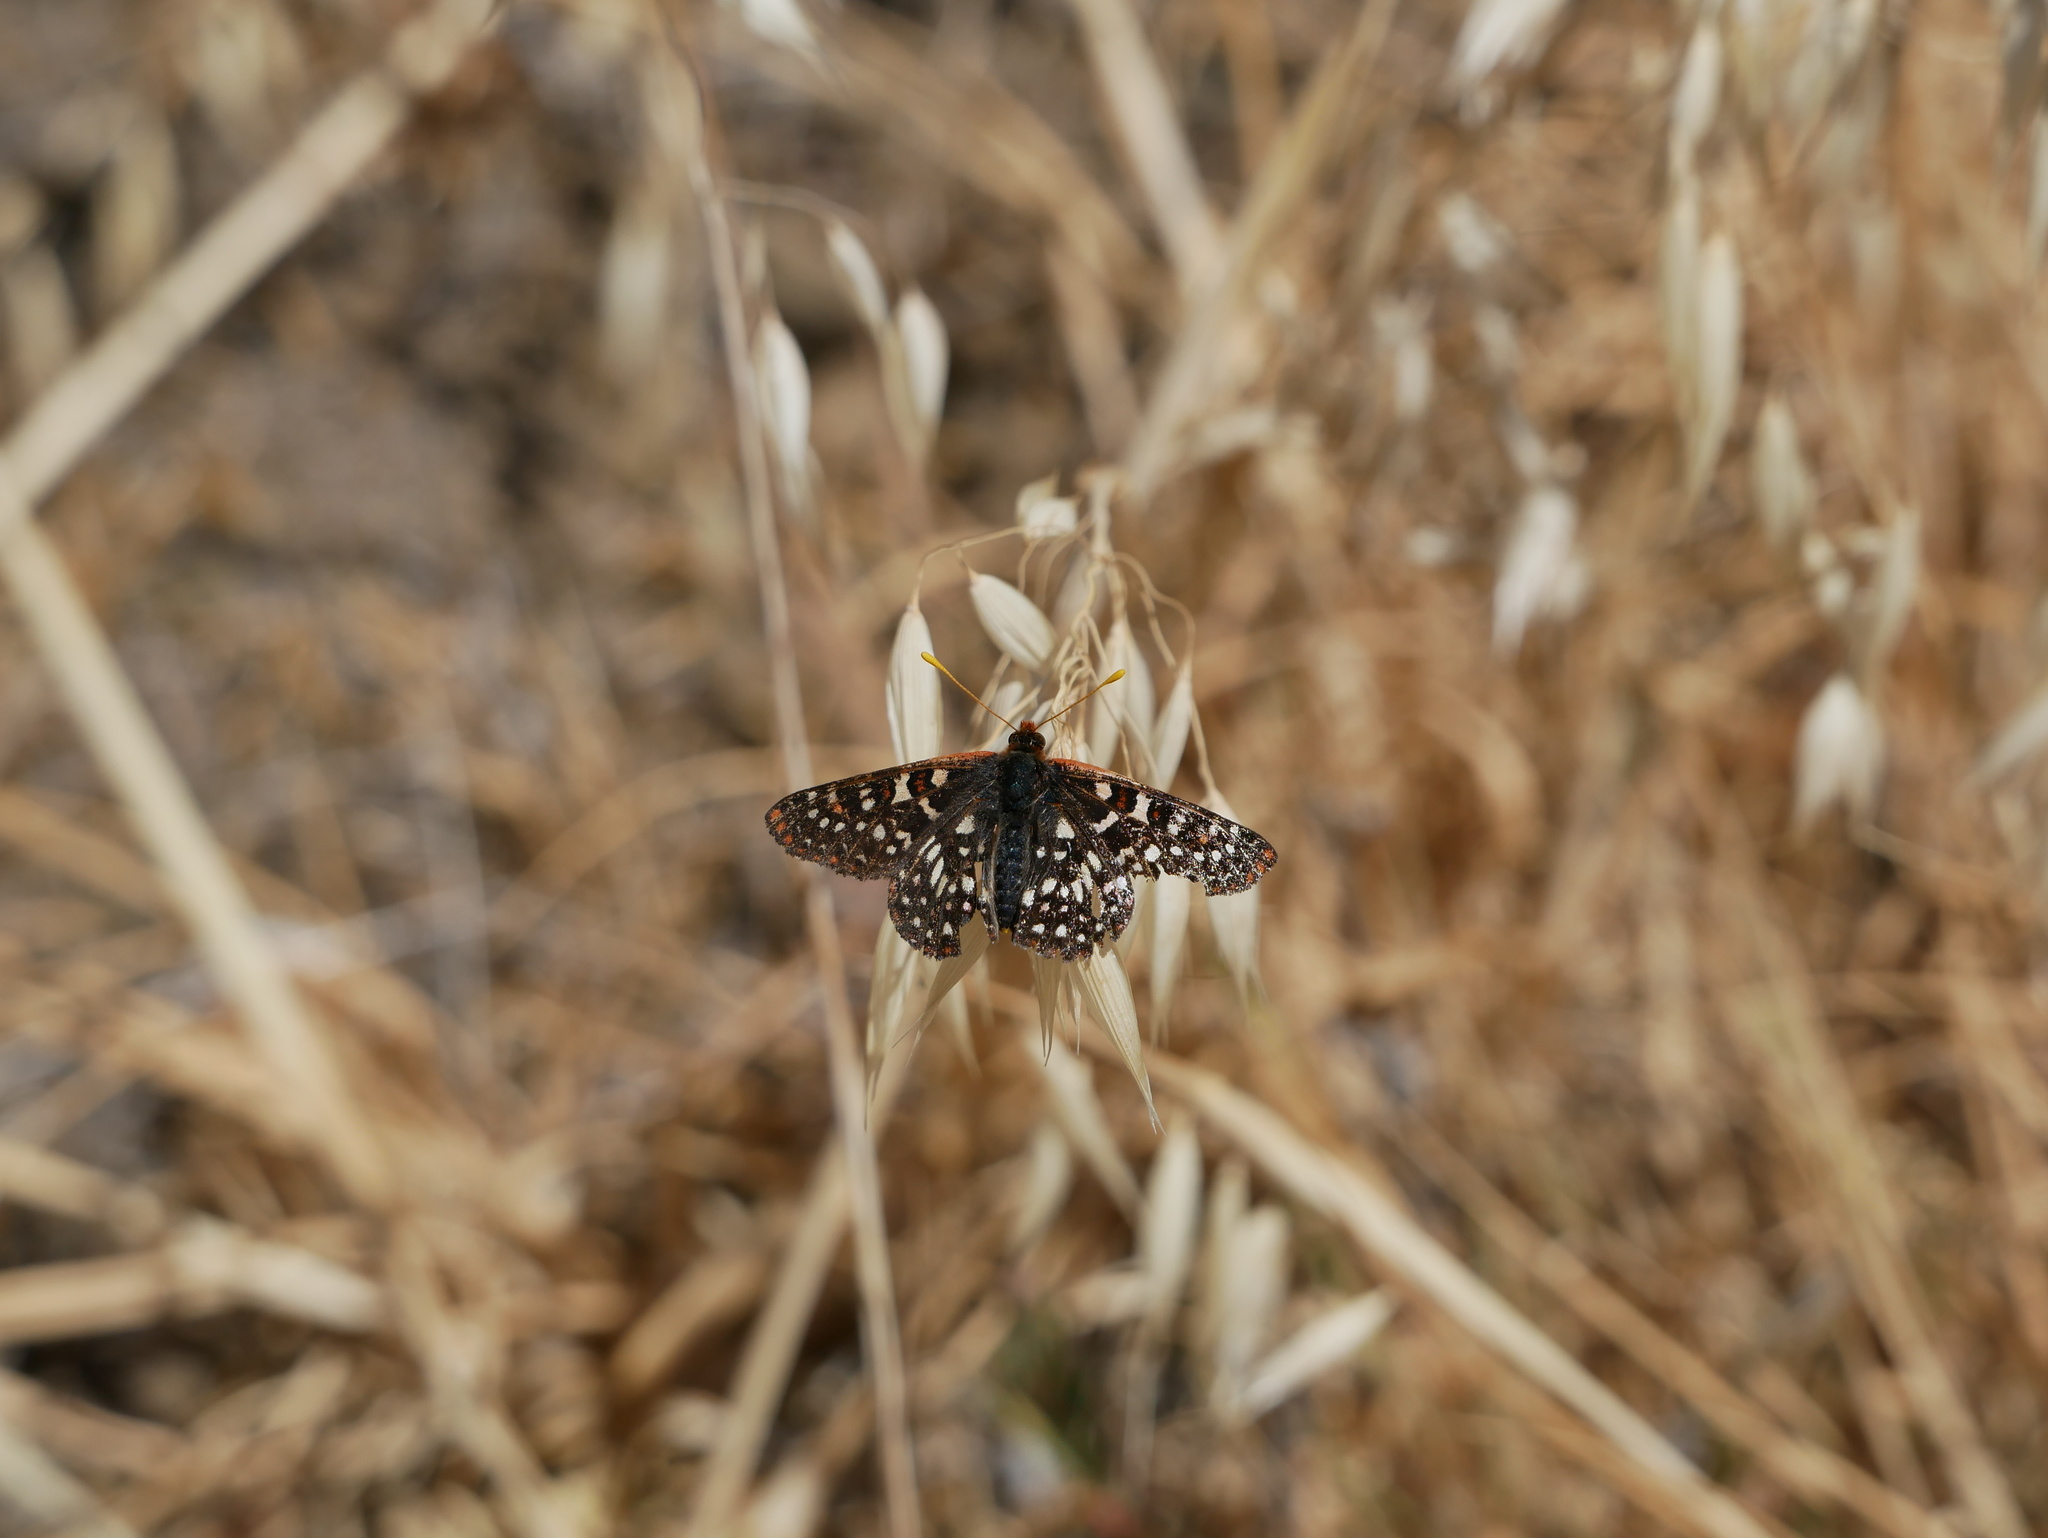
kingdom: Animalia
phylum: Arthropoda
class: Insecta
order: Lepidoptera
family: Nymphalidae
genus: Occidryas
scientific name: Occidryas chalcedona
